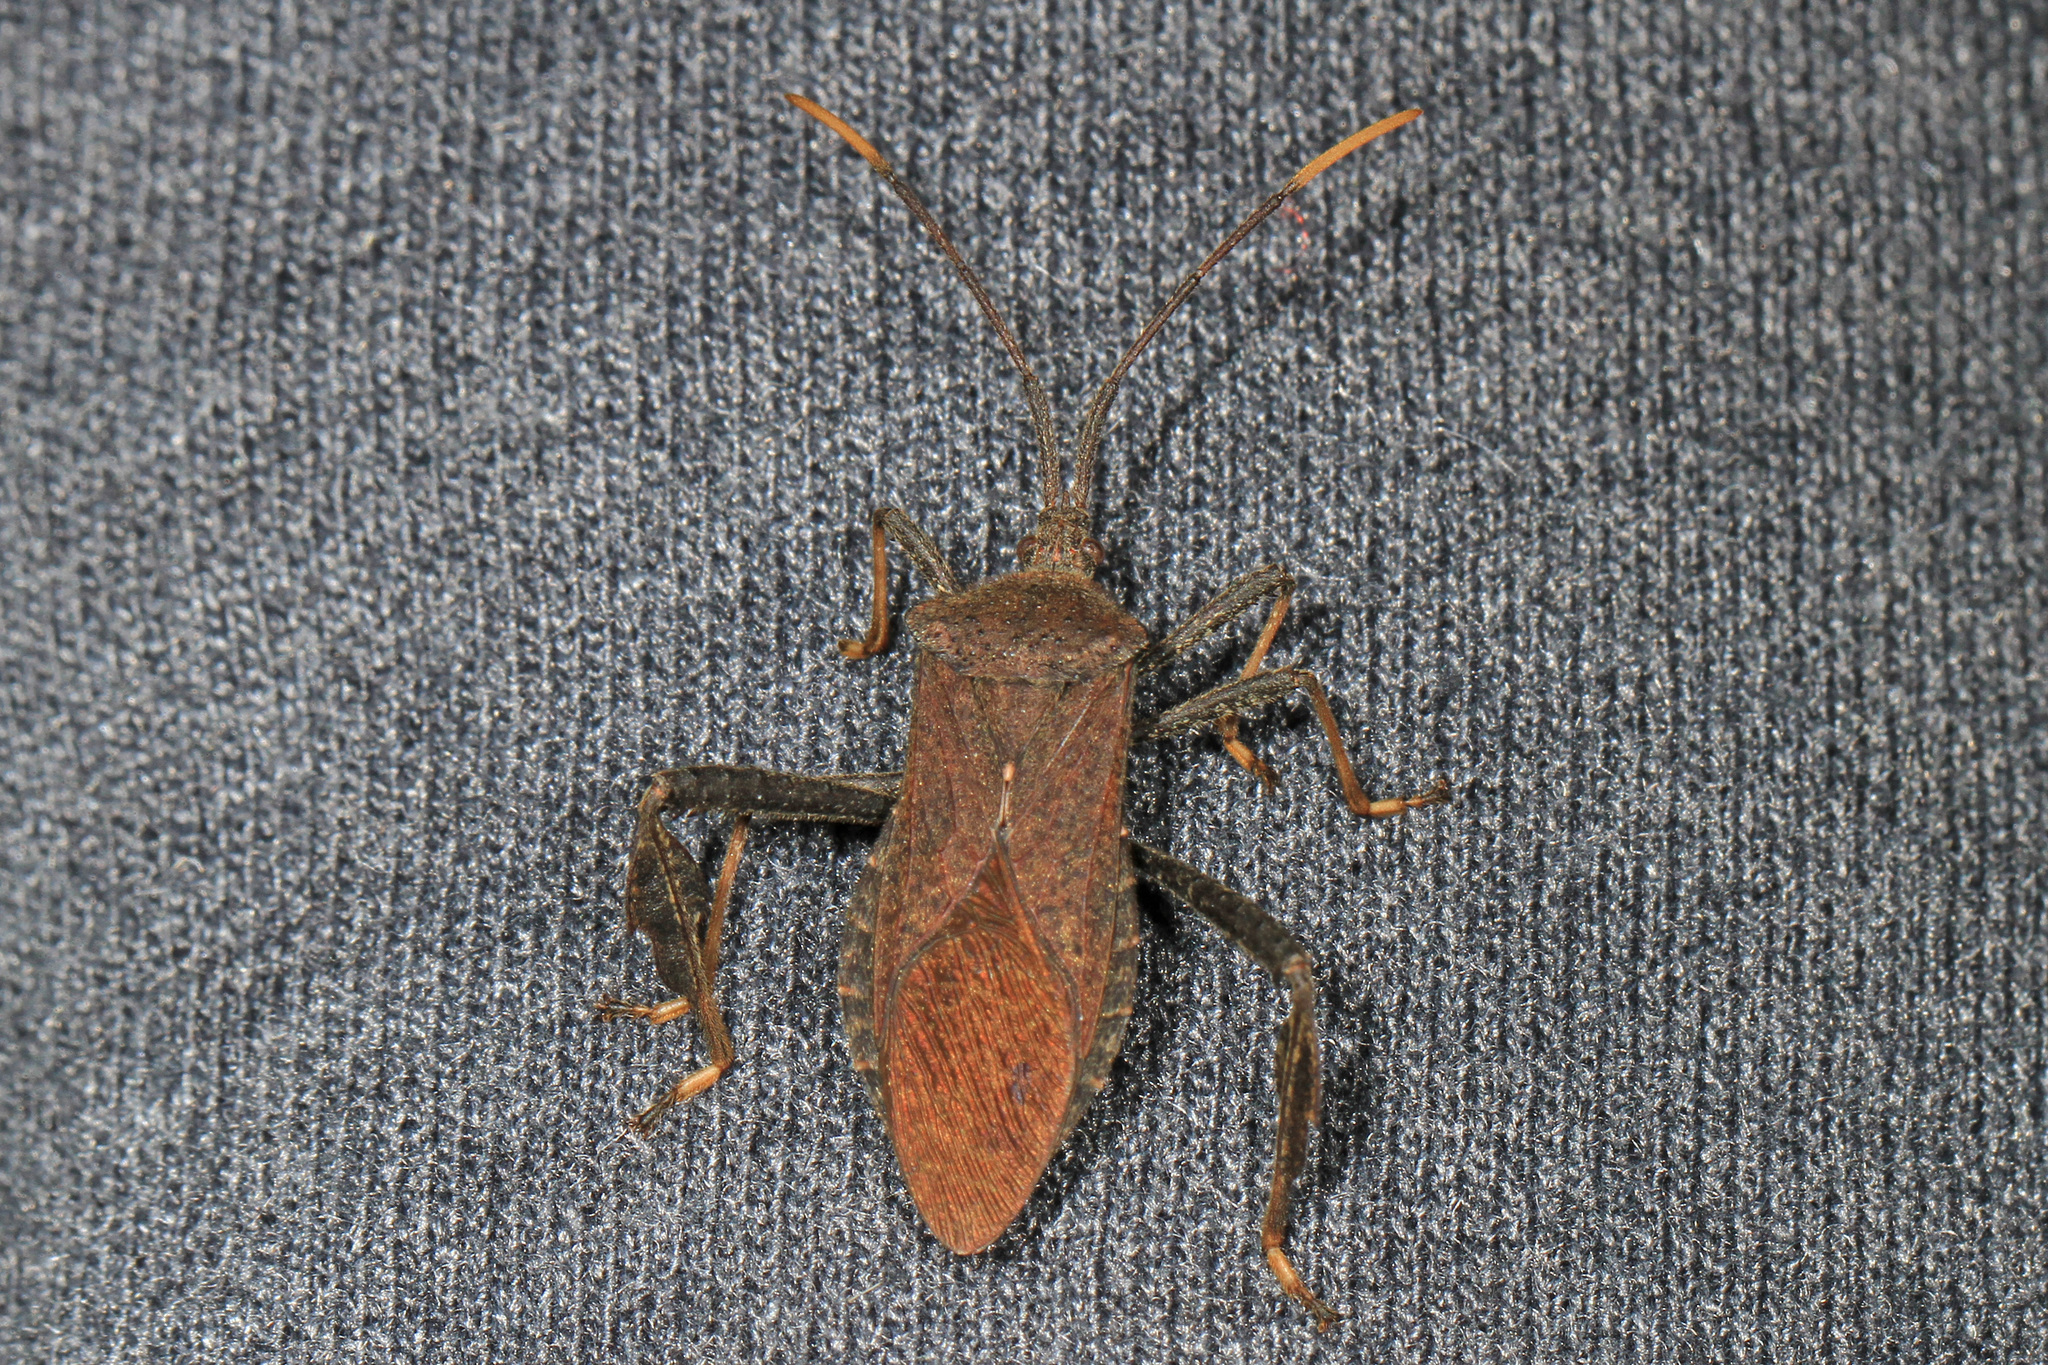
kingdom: Animalia
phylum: Arthropoda
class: Insecta
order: Hemiptera
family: Coreidae
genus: Acanthocephala
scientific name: Acanthocephala terminalis
